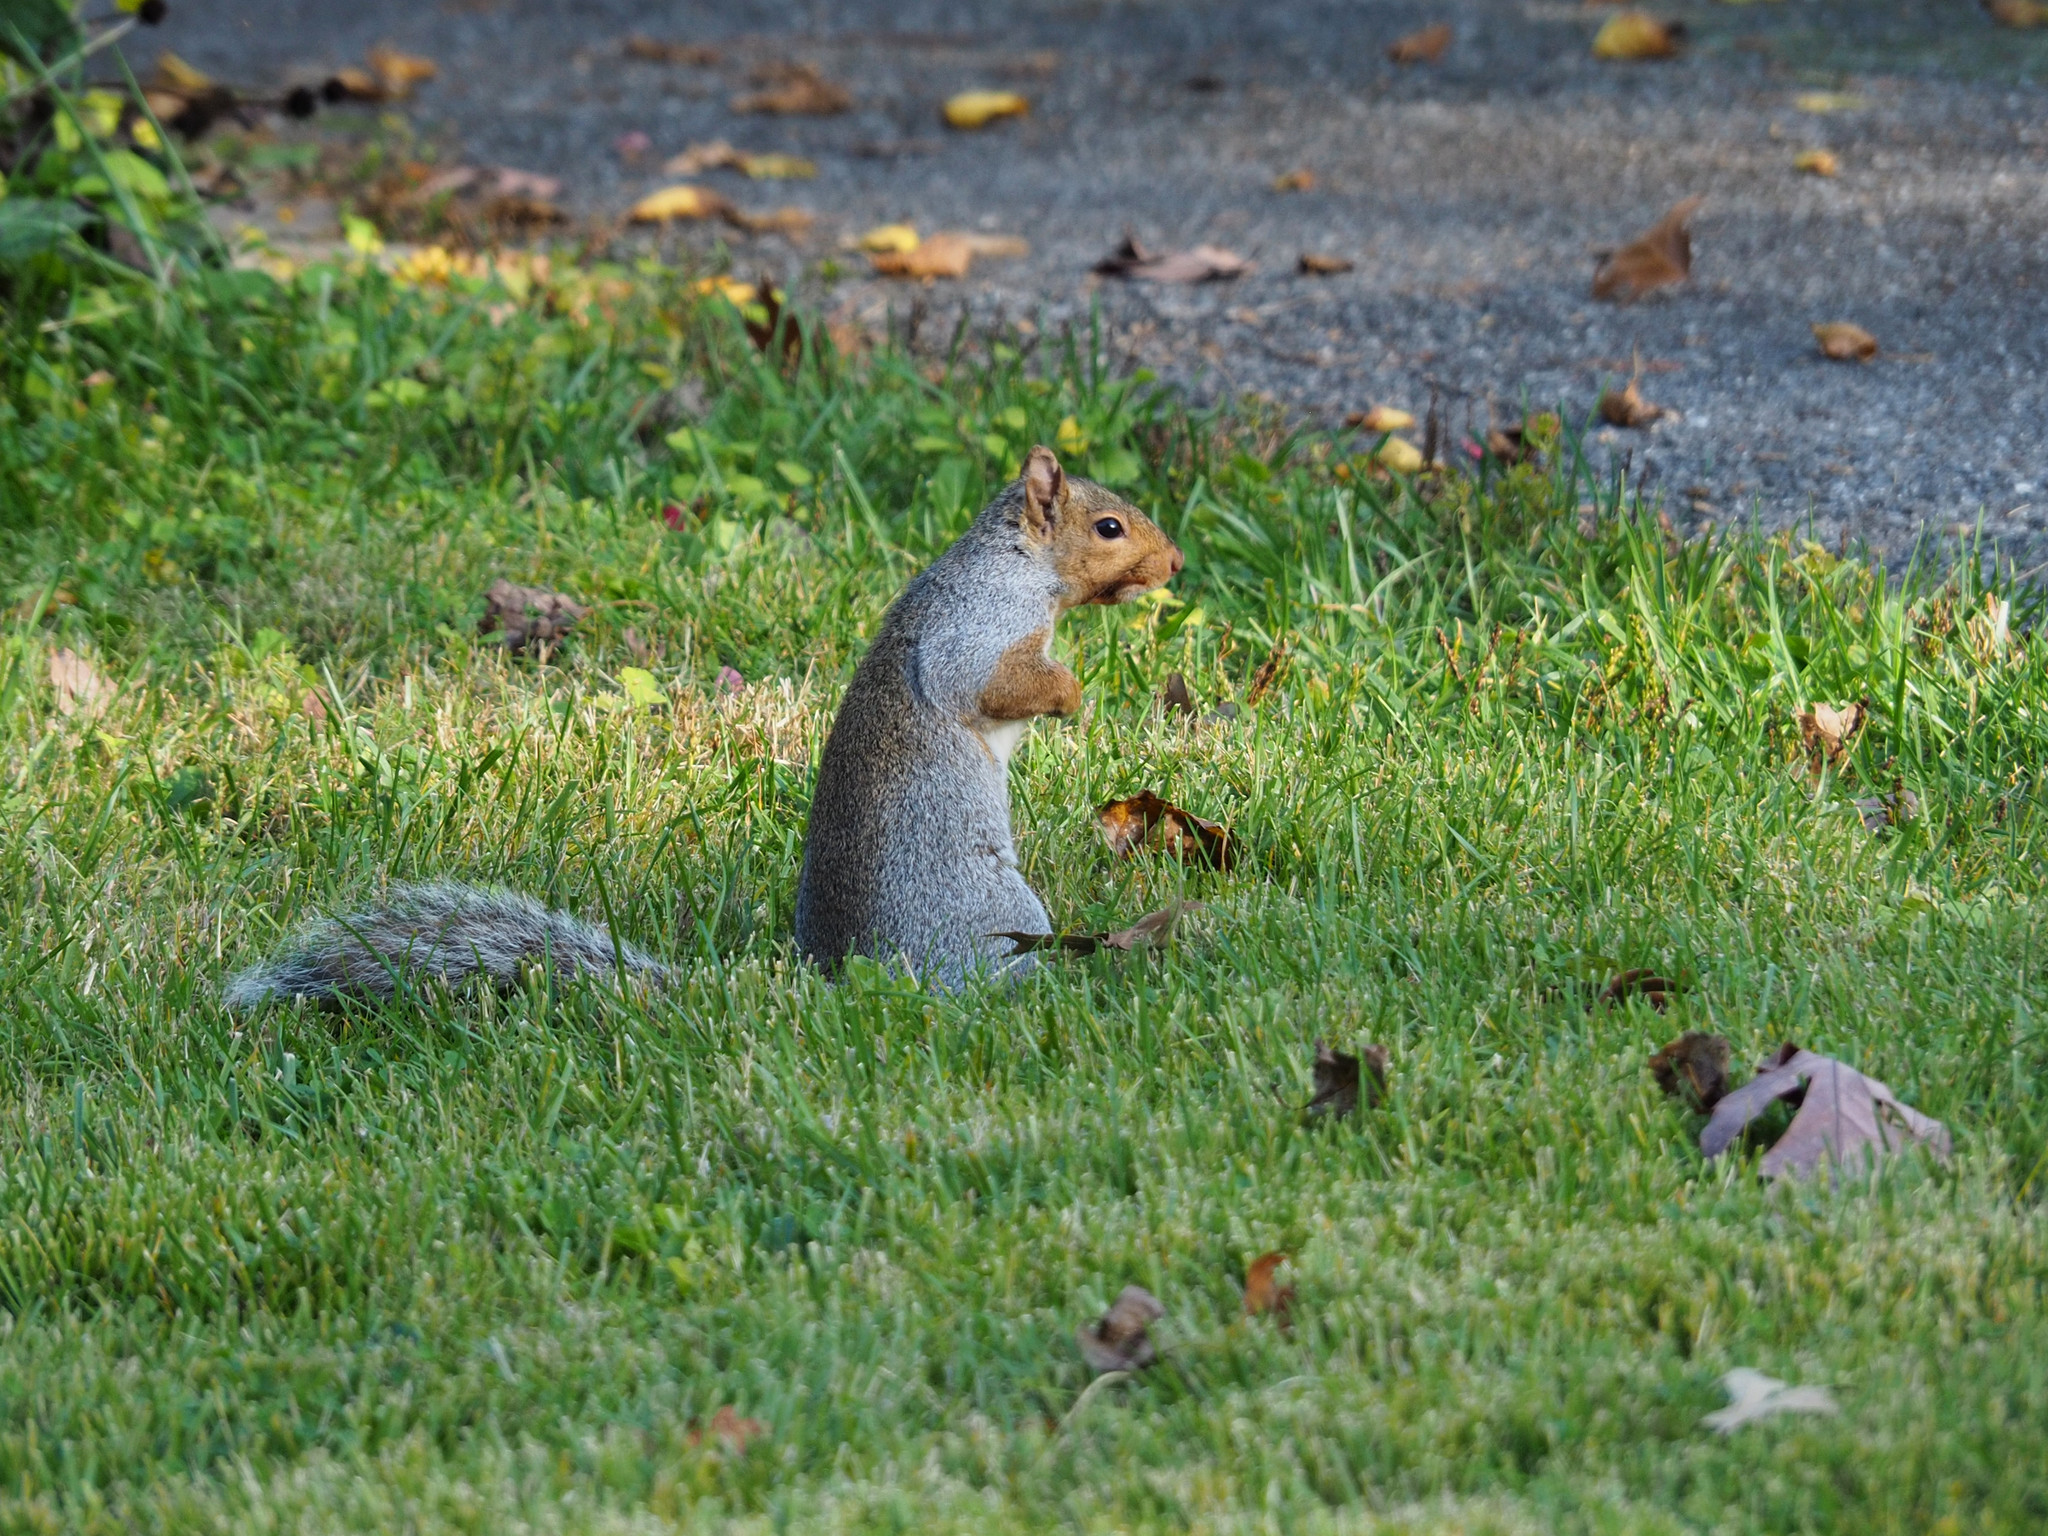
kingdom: Animalia
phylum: Chordata
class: Mammalia
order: Rodentia
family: Sciuridae
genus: Sciurus
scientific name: Sciurus carolinensis
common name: Eastern gray squirrel
